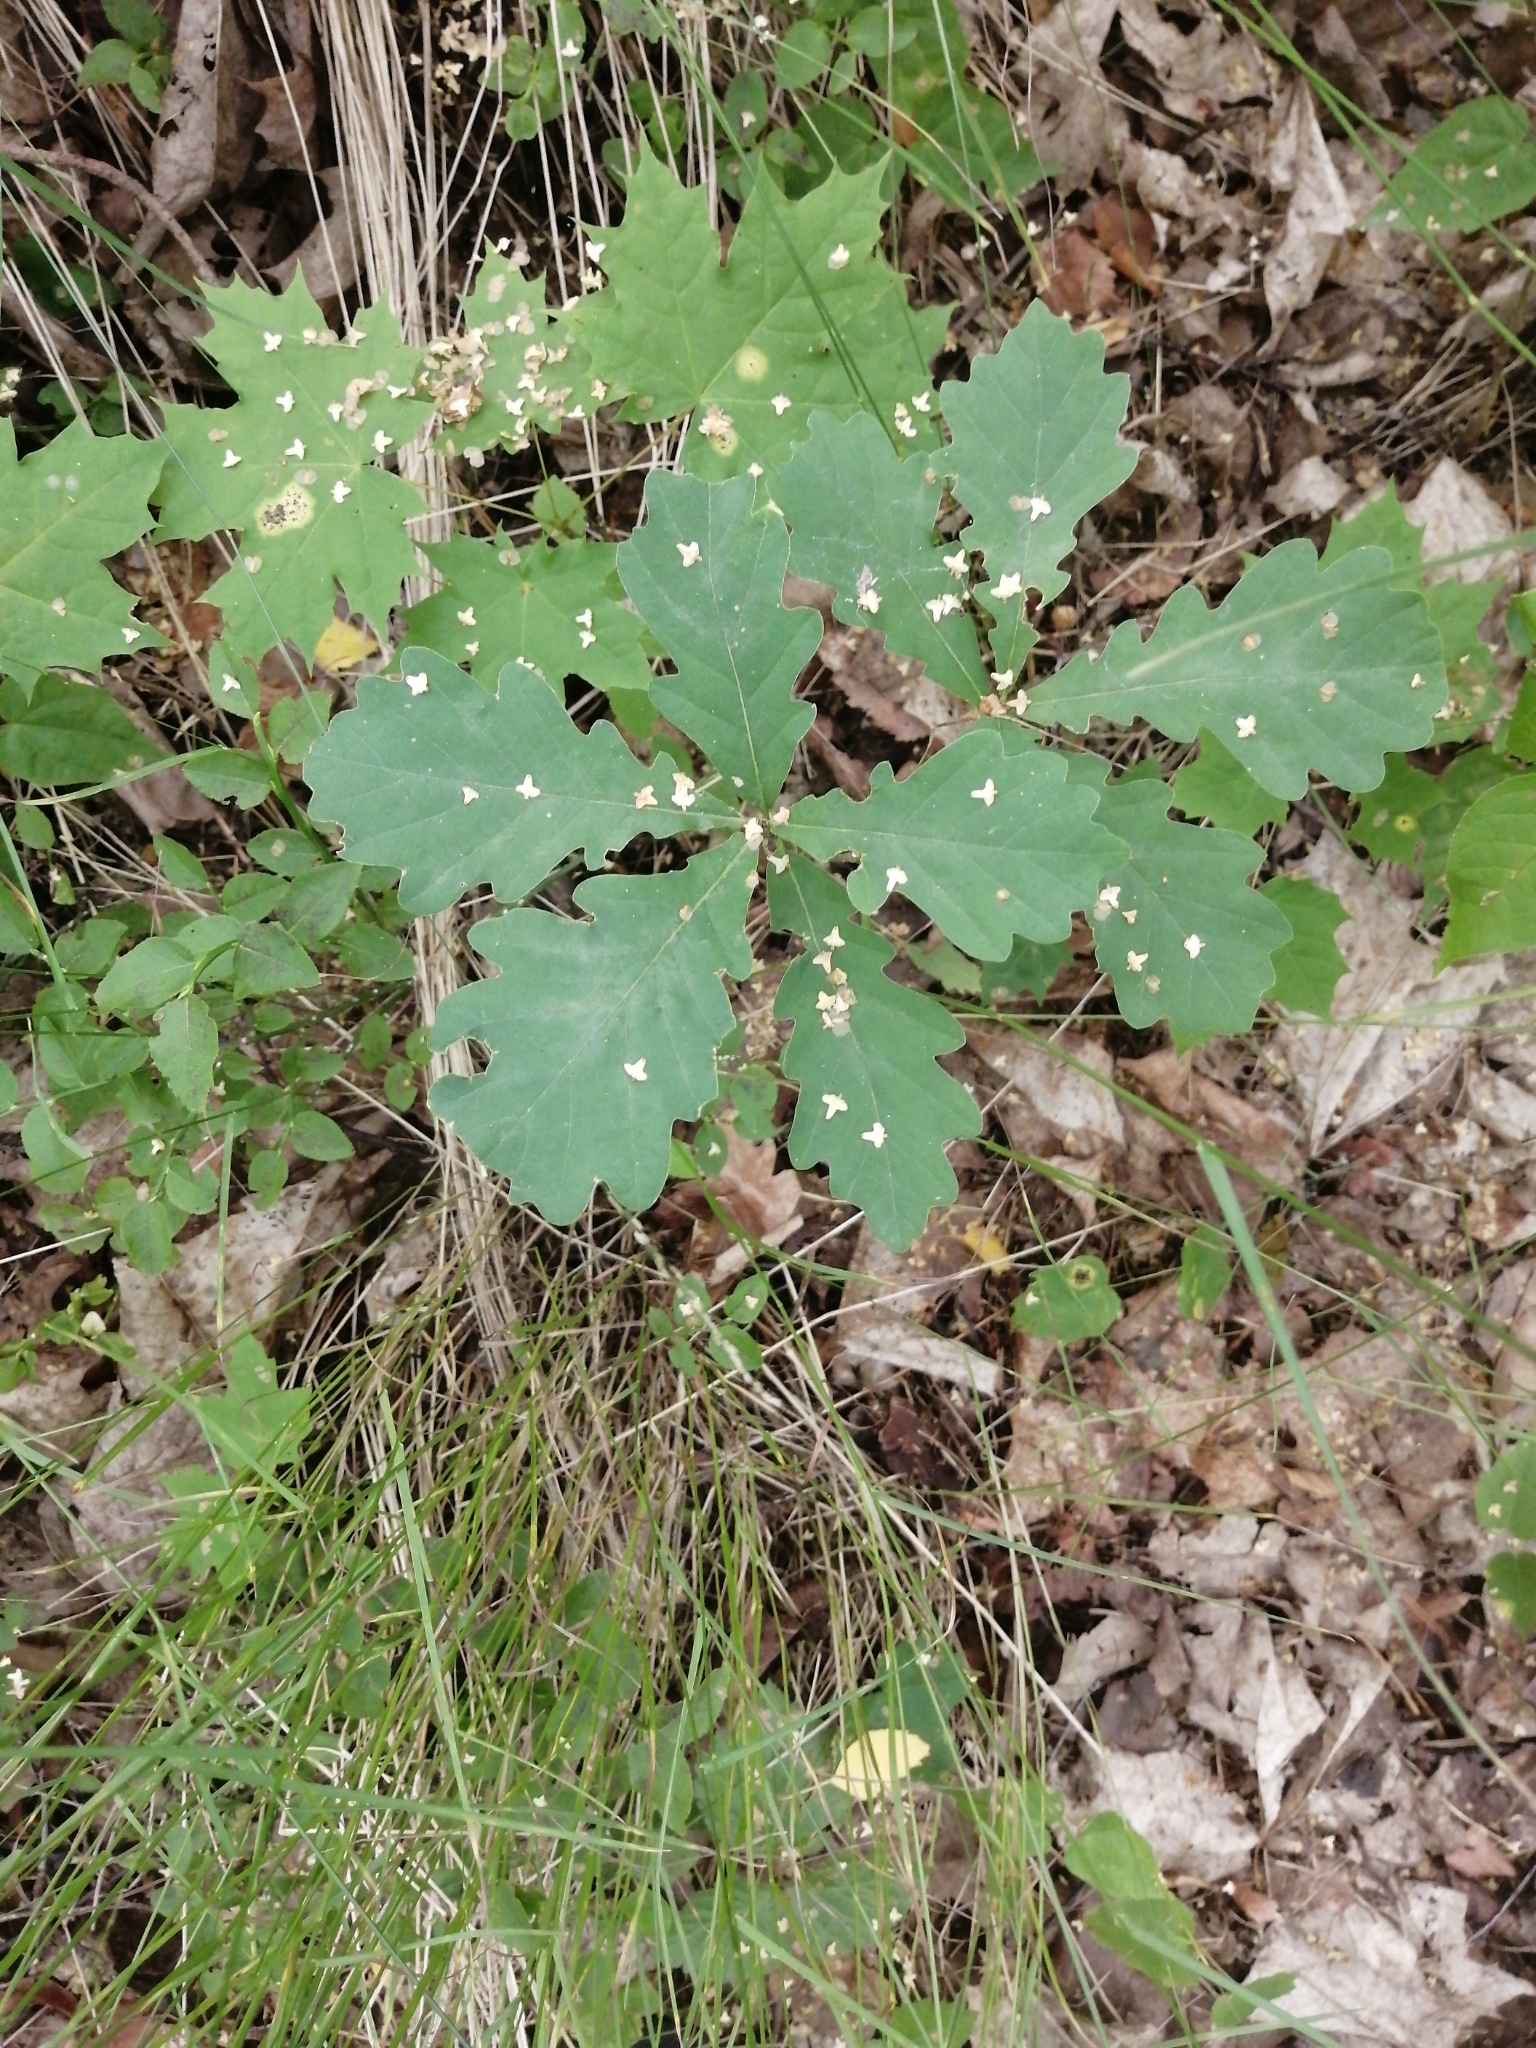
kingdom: Plantae
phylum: Tracheophyta
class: Magnoliopsida
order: Fagales
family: Fagaceae
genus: Quercus
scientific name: Quercus robur
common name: Pedunculate oak
